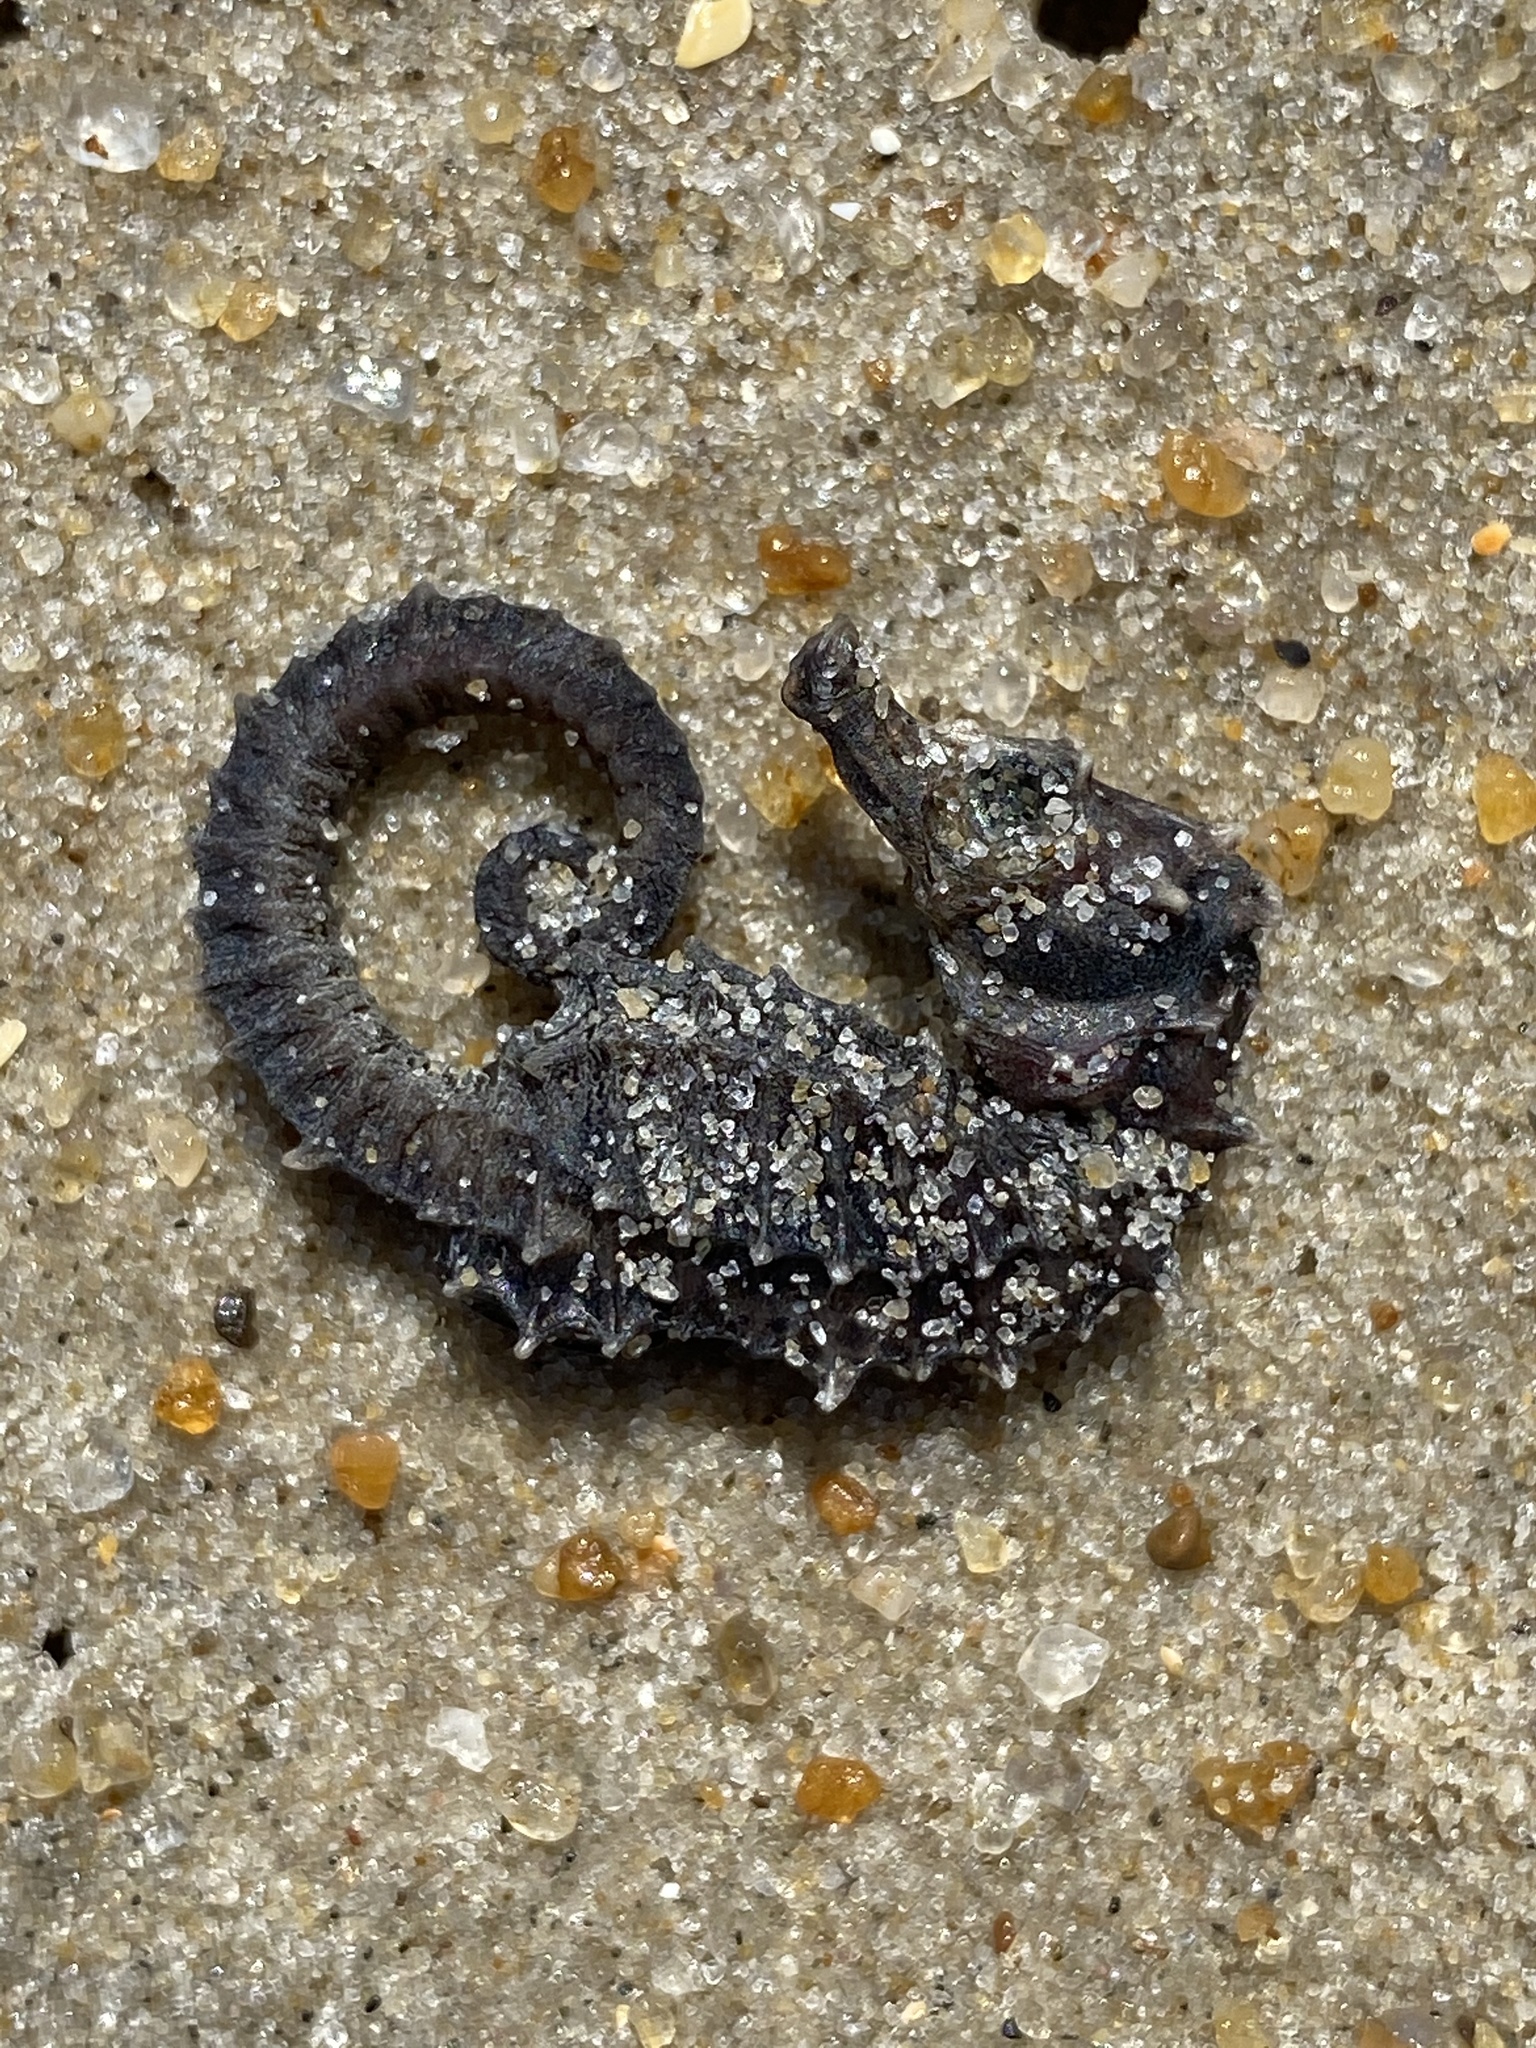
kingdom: Animalia
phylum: Chordata
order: Syngnathiformes
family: Syngnathidae
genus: Hippocampus
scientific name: Hippocampus erectus
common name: Lined seahorse
